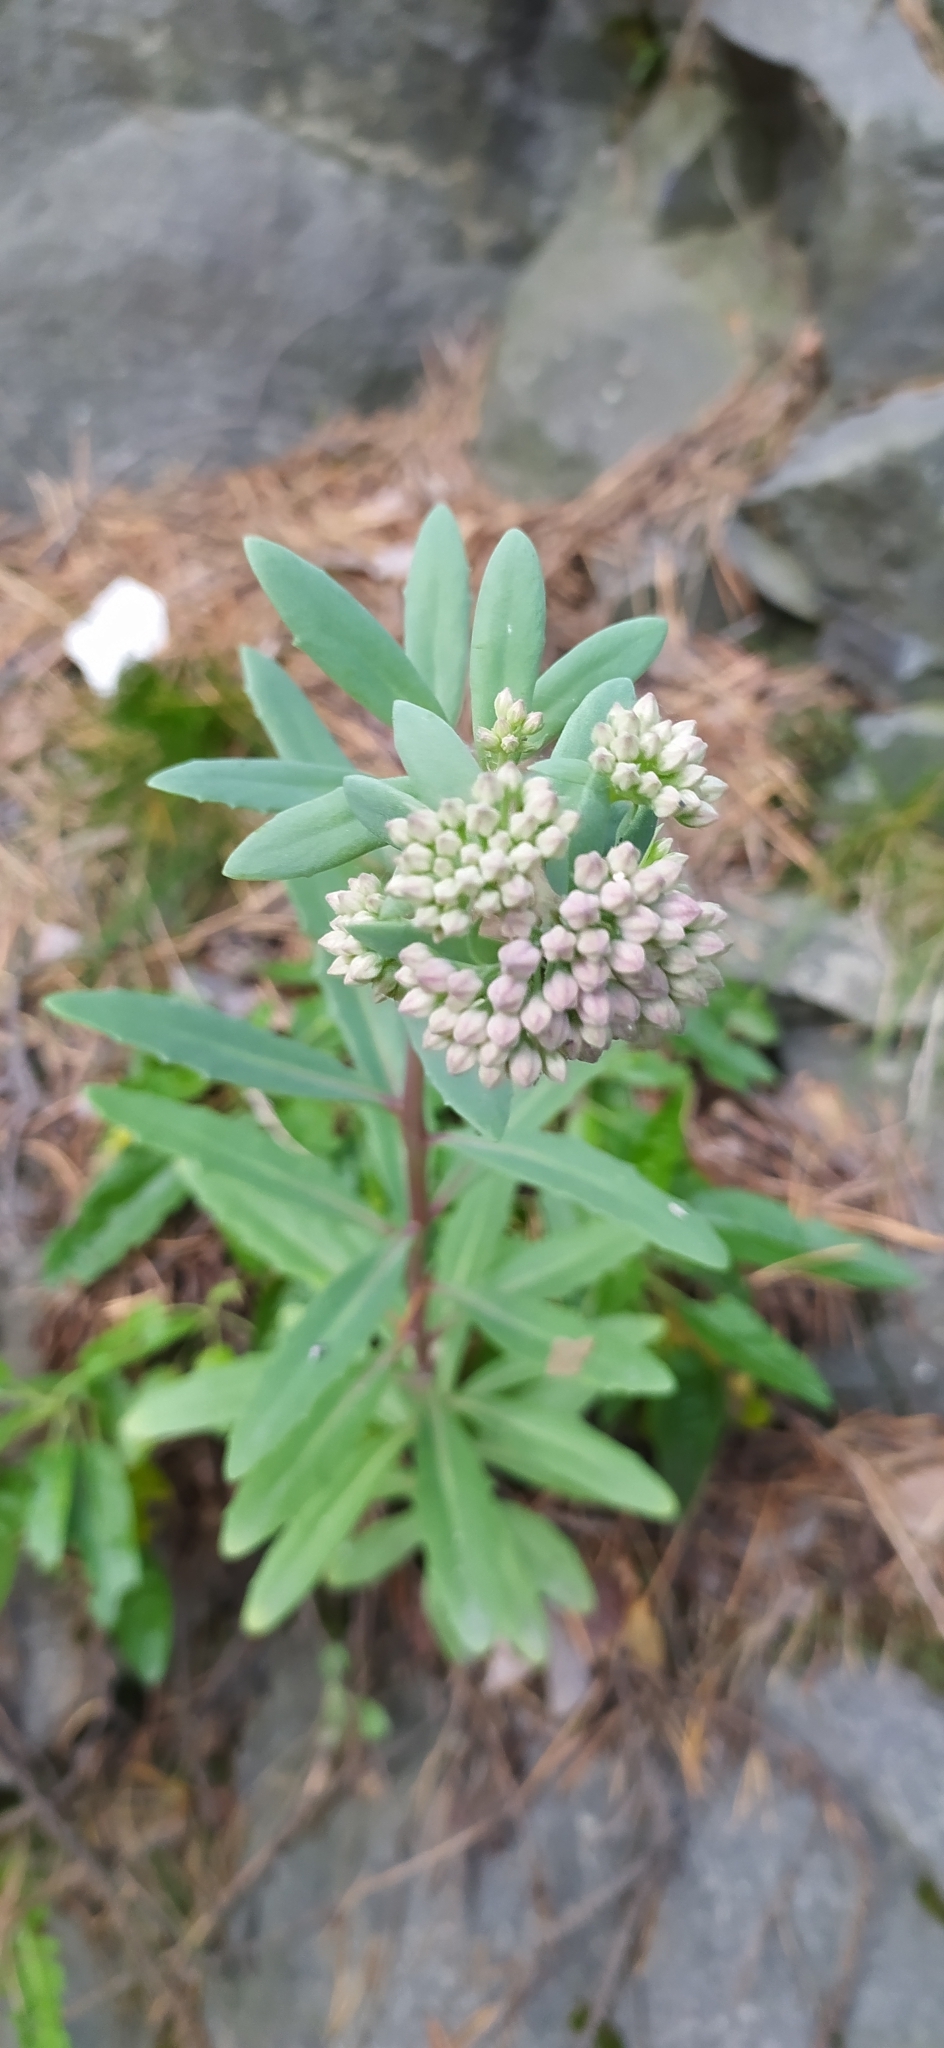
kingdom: Plantae
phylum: Tracheophyta
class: Magnoliopsida
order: Saxifragales
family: Crassulaceae
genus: Hylotelephium
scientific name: Hylotelephium telephium
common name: Live-forever
